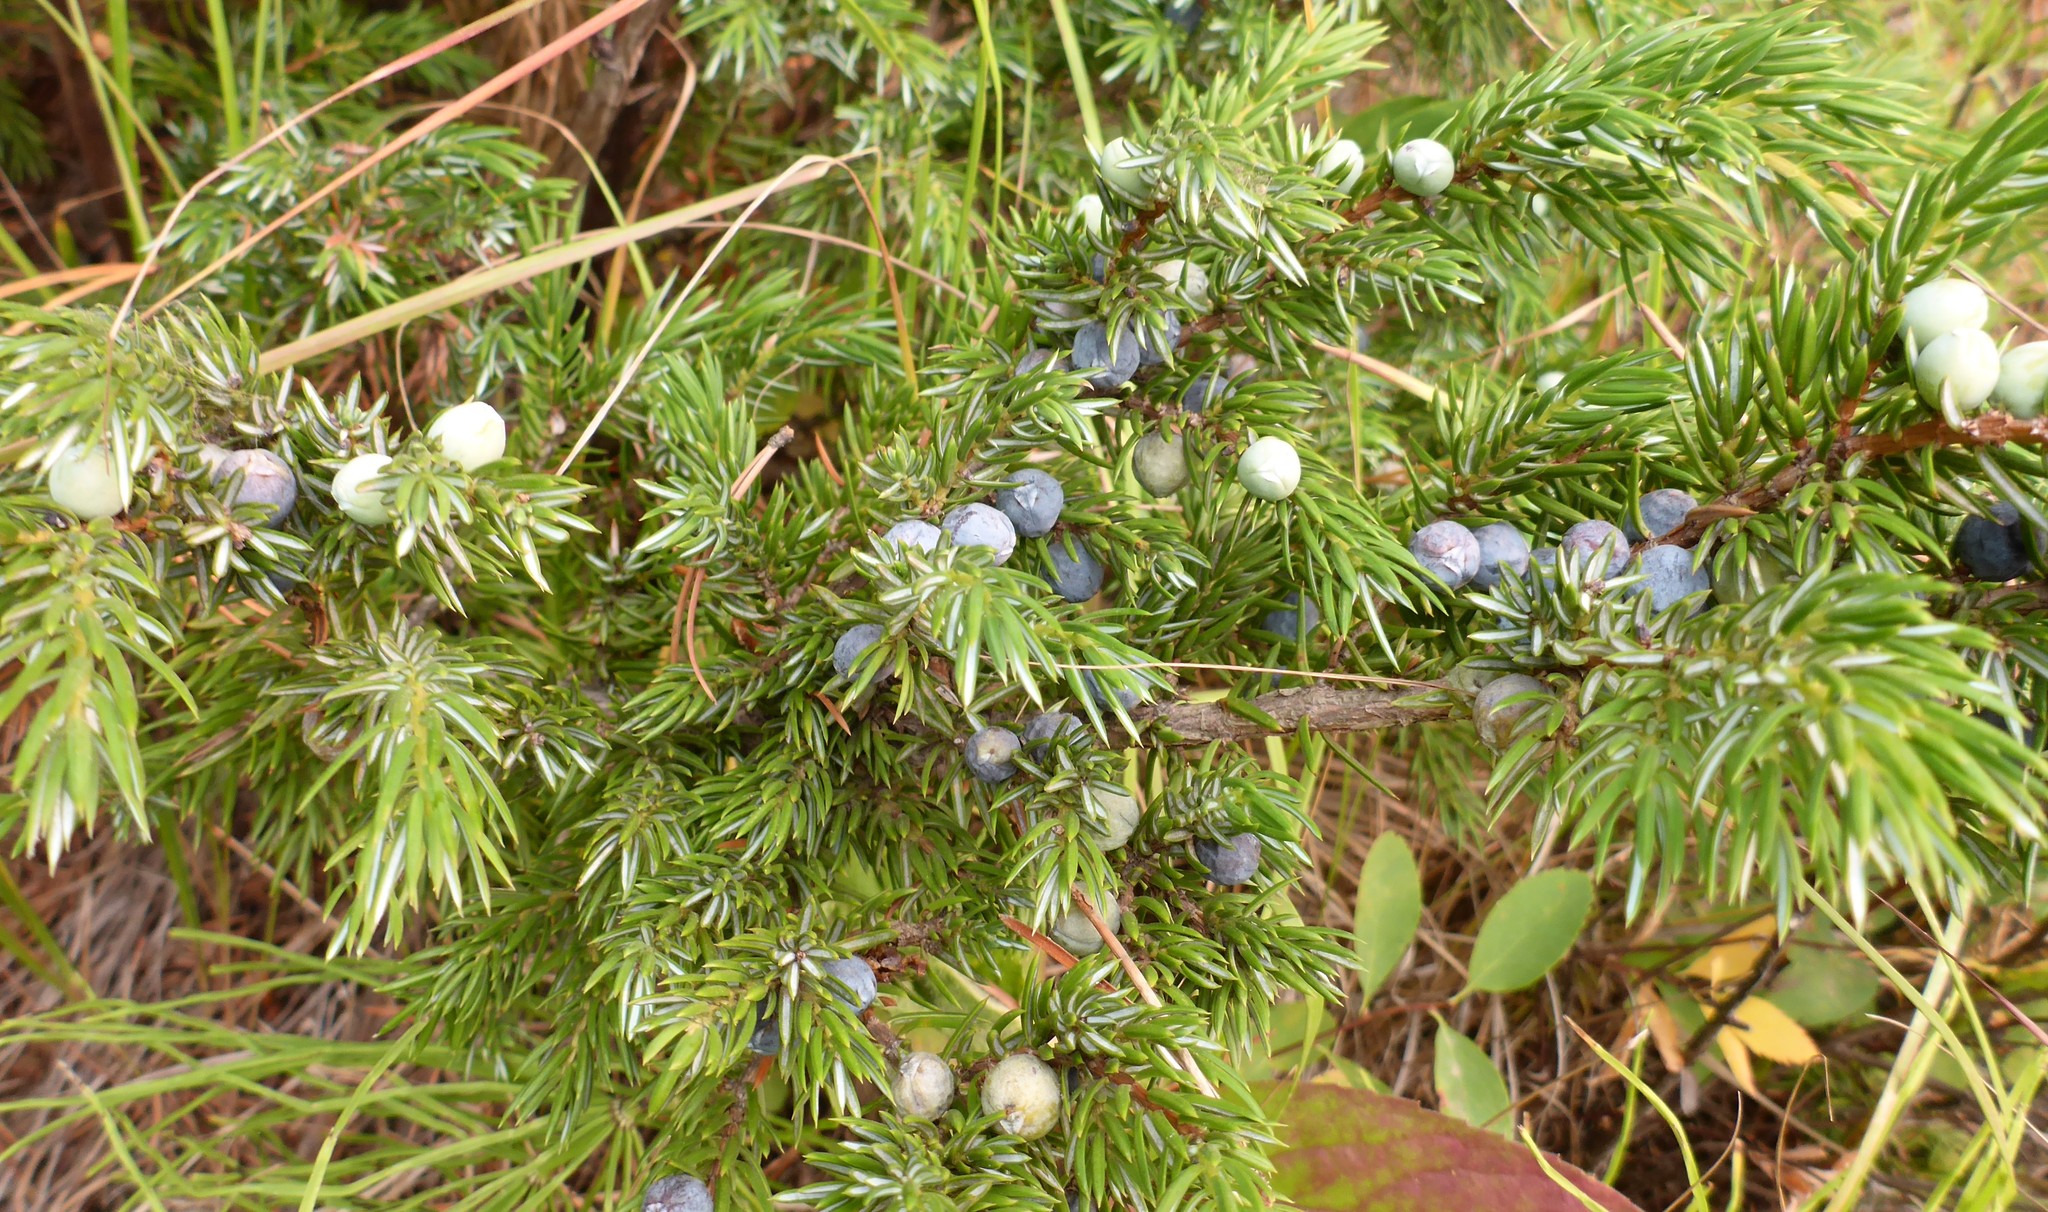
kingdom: Plantae
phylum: Tracheophyta
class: Pinopsida
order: Pinales
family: Cupressaceae
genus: Juniperus
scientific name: Juniperus communis
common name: Common juniper
